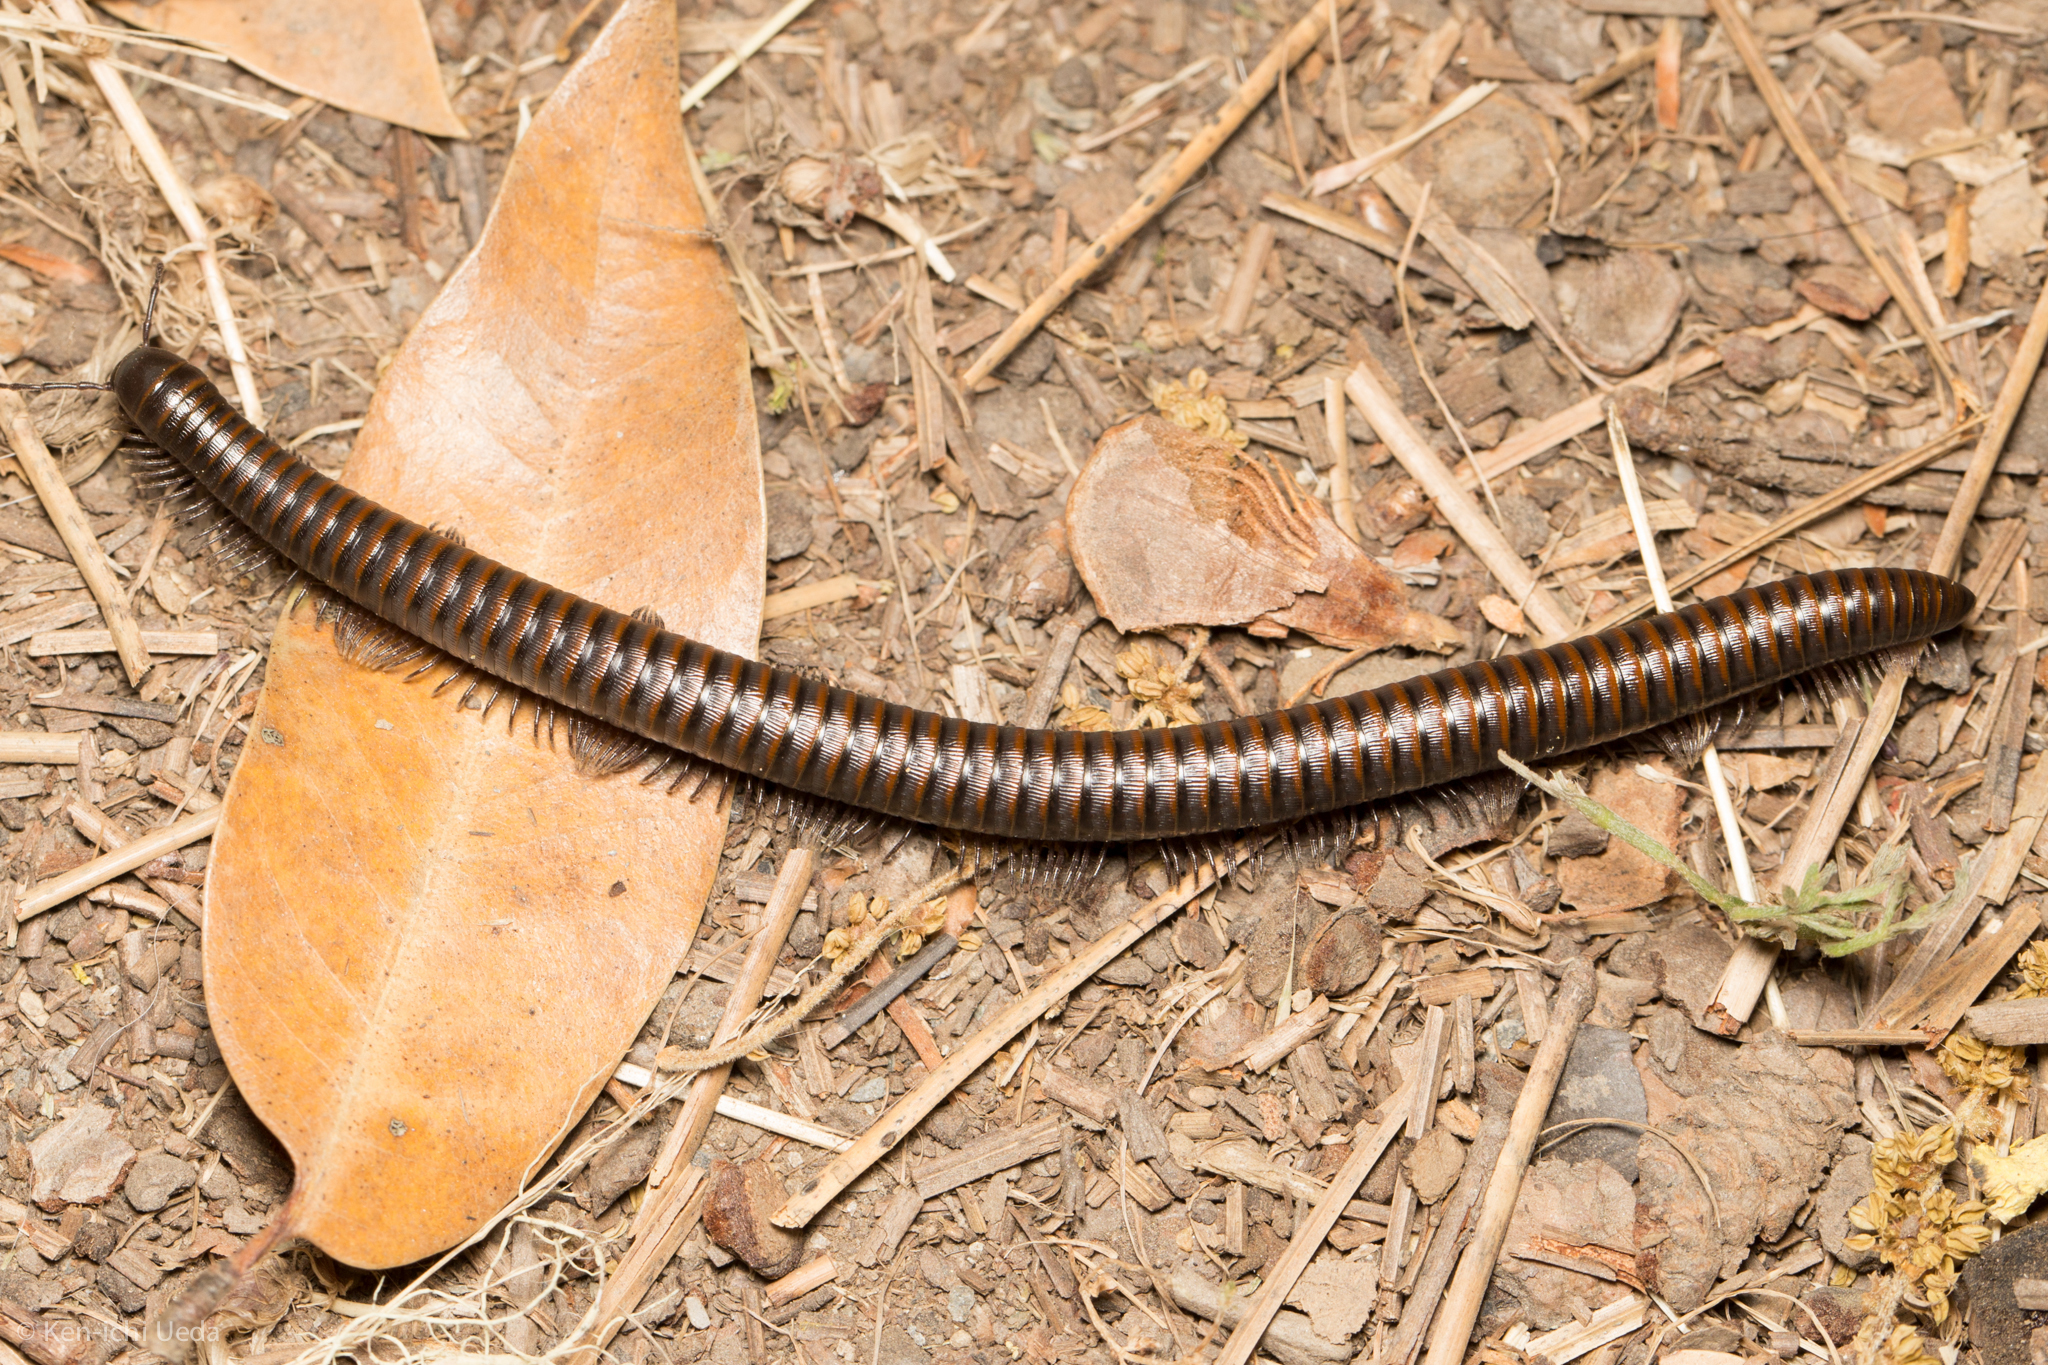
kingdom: Animalia
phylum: Arthropoda
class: Diplopoda
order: Julida
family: Paeromopodidae
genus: Paeromopus
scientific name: Paeromopus angusticeps
